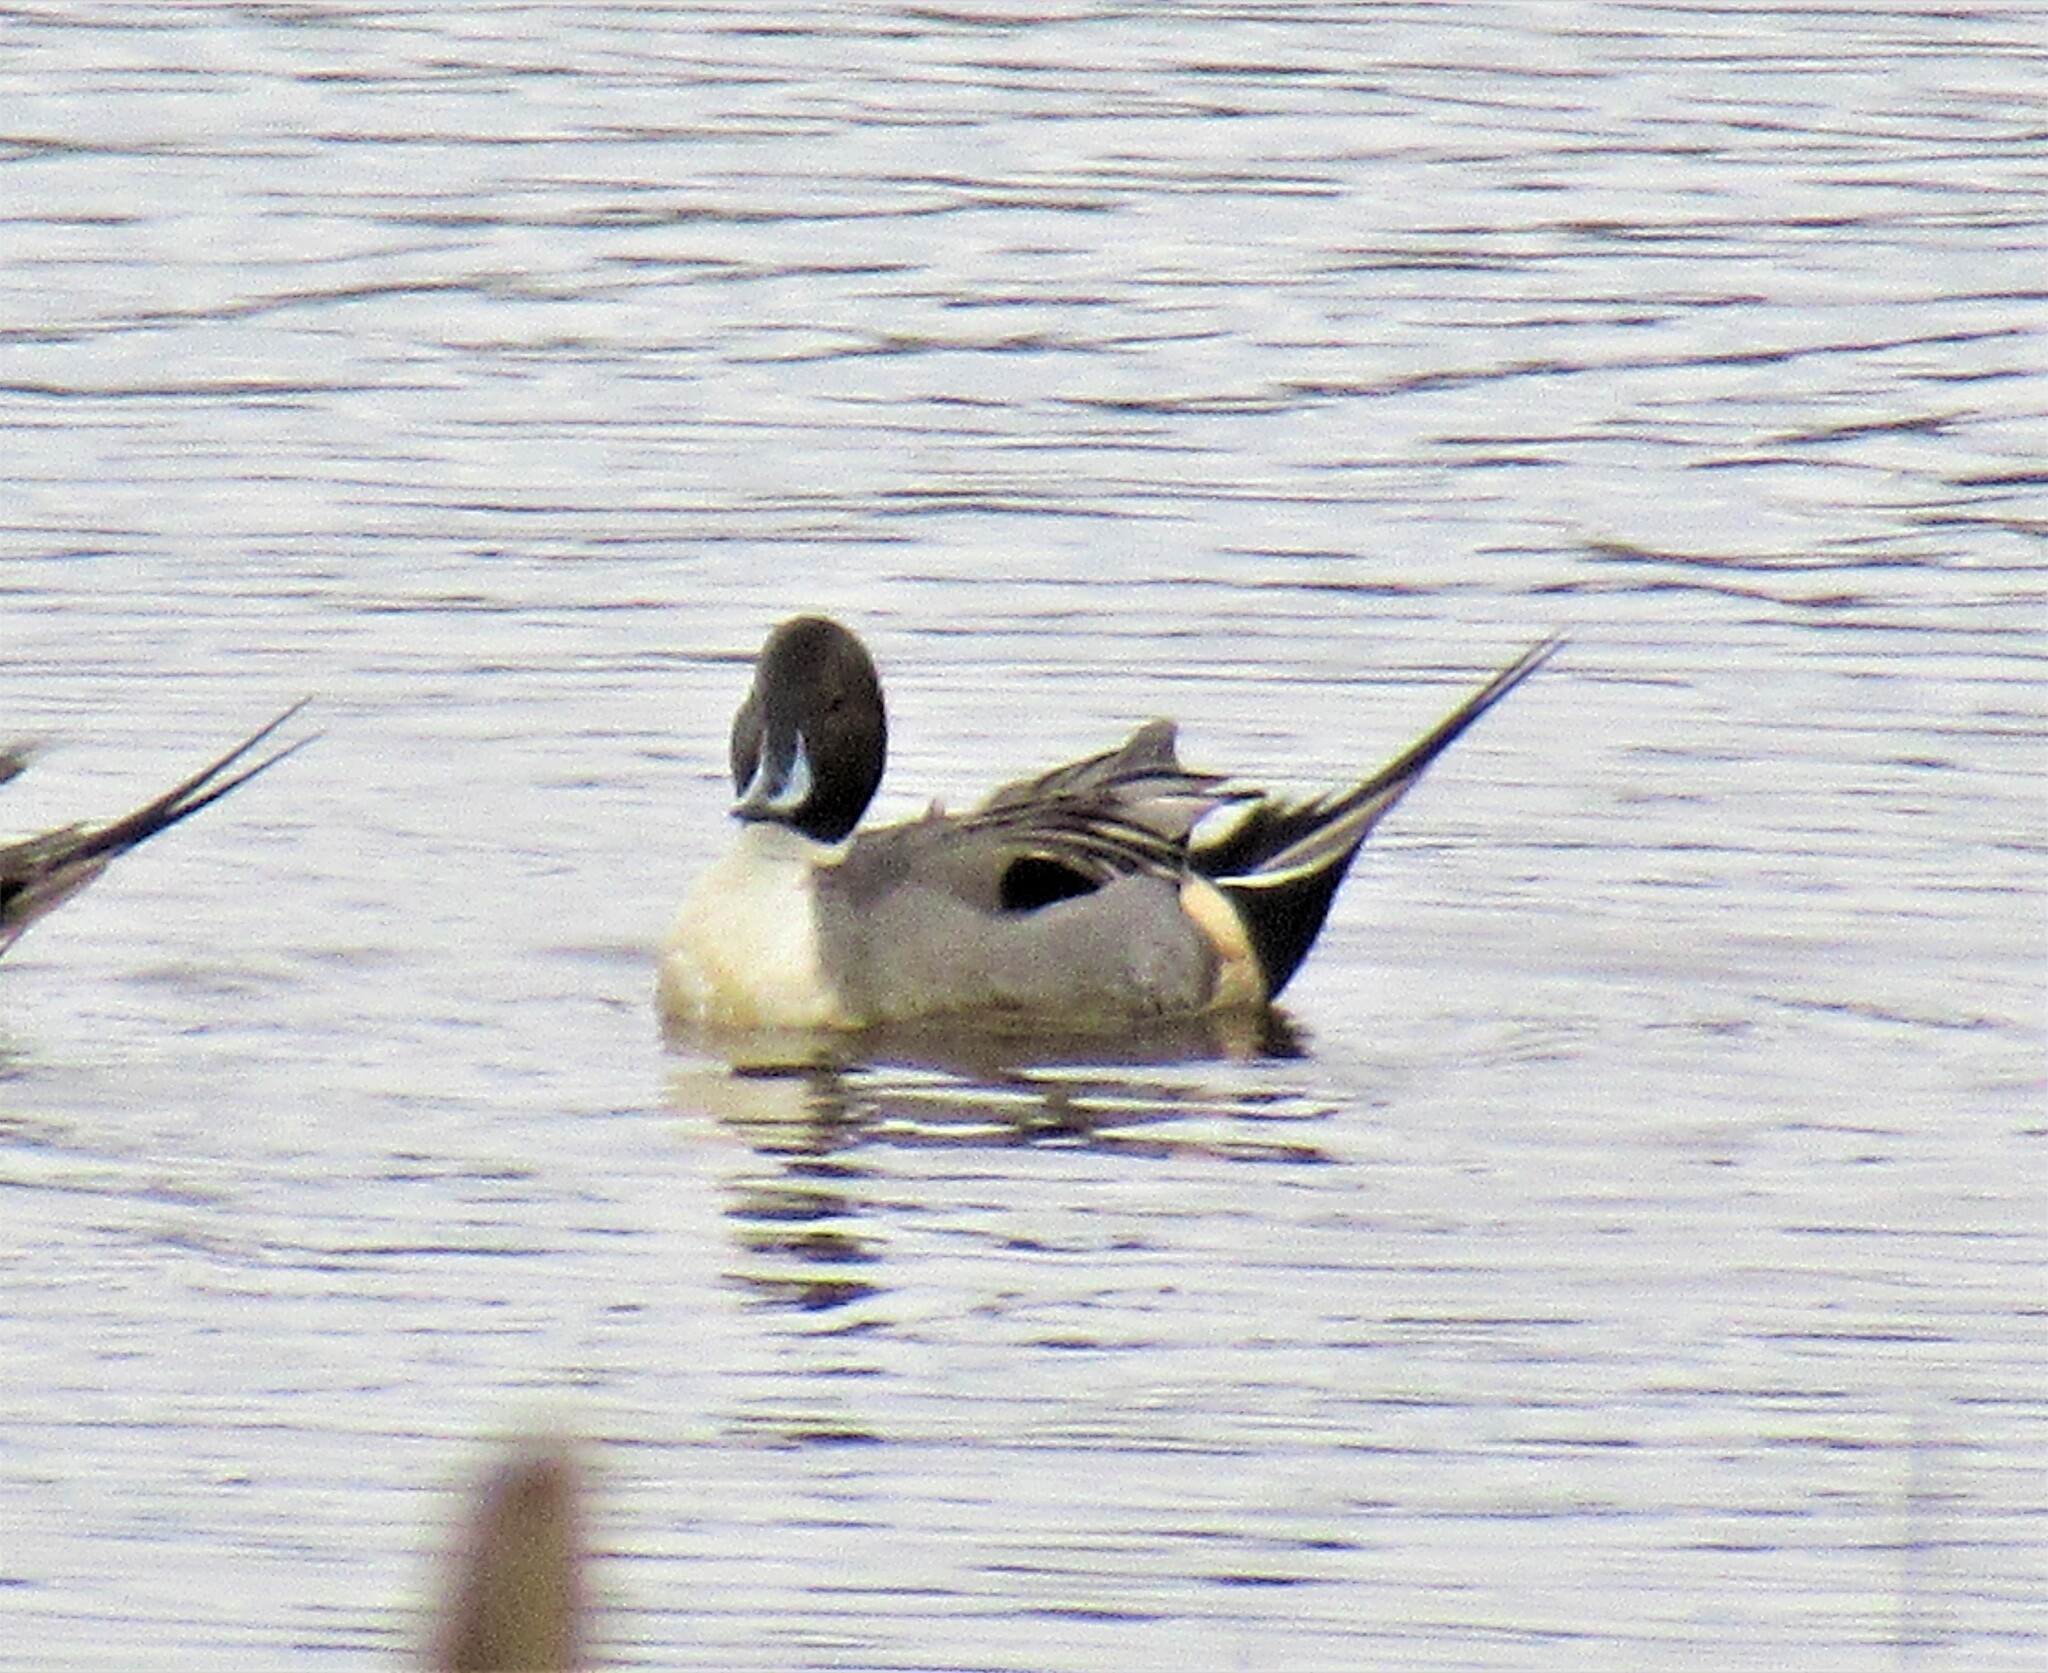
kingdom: Animalia
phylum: Chordata
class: Aves
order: Anseriformes
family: Anatidae
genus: Anas
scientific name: Anas acuta
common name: Northern pintail
